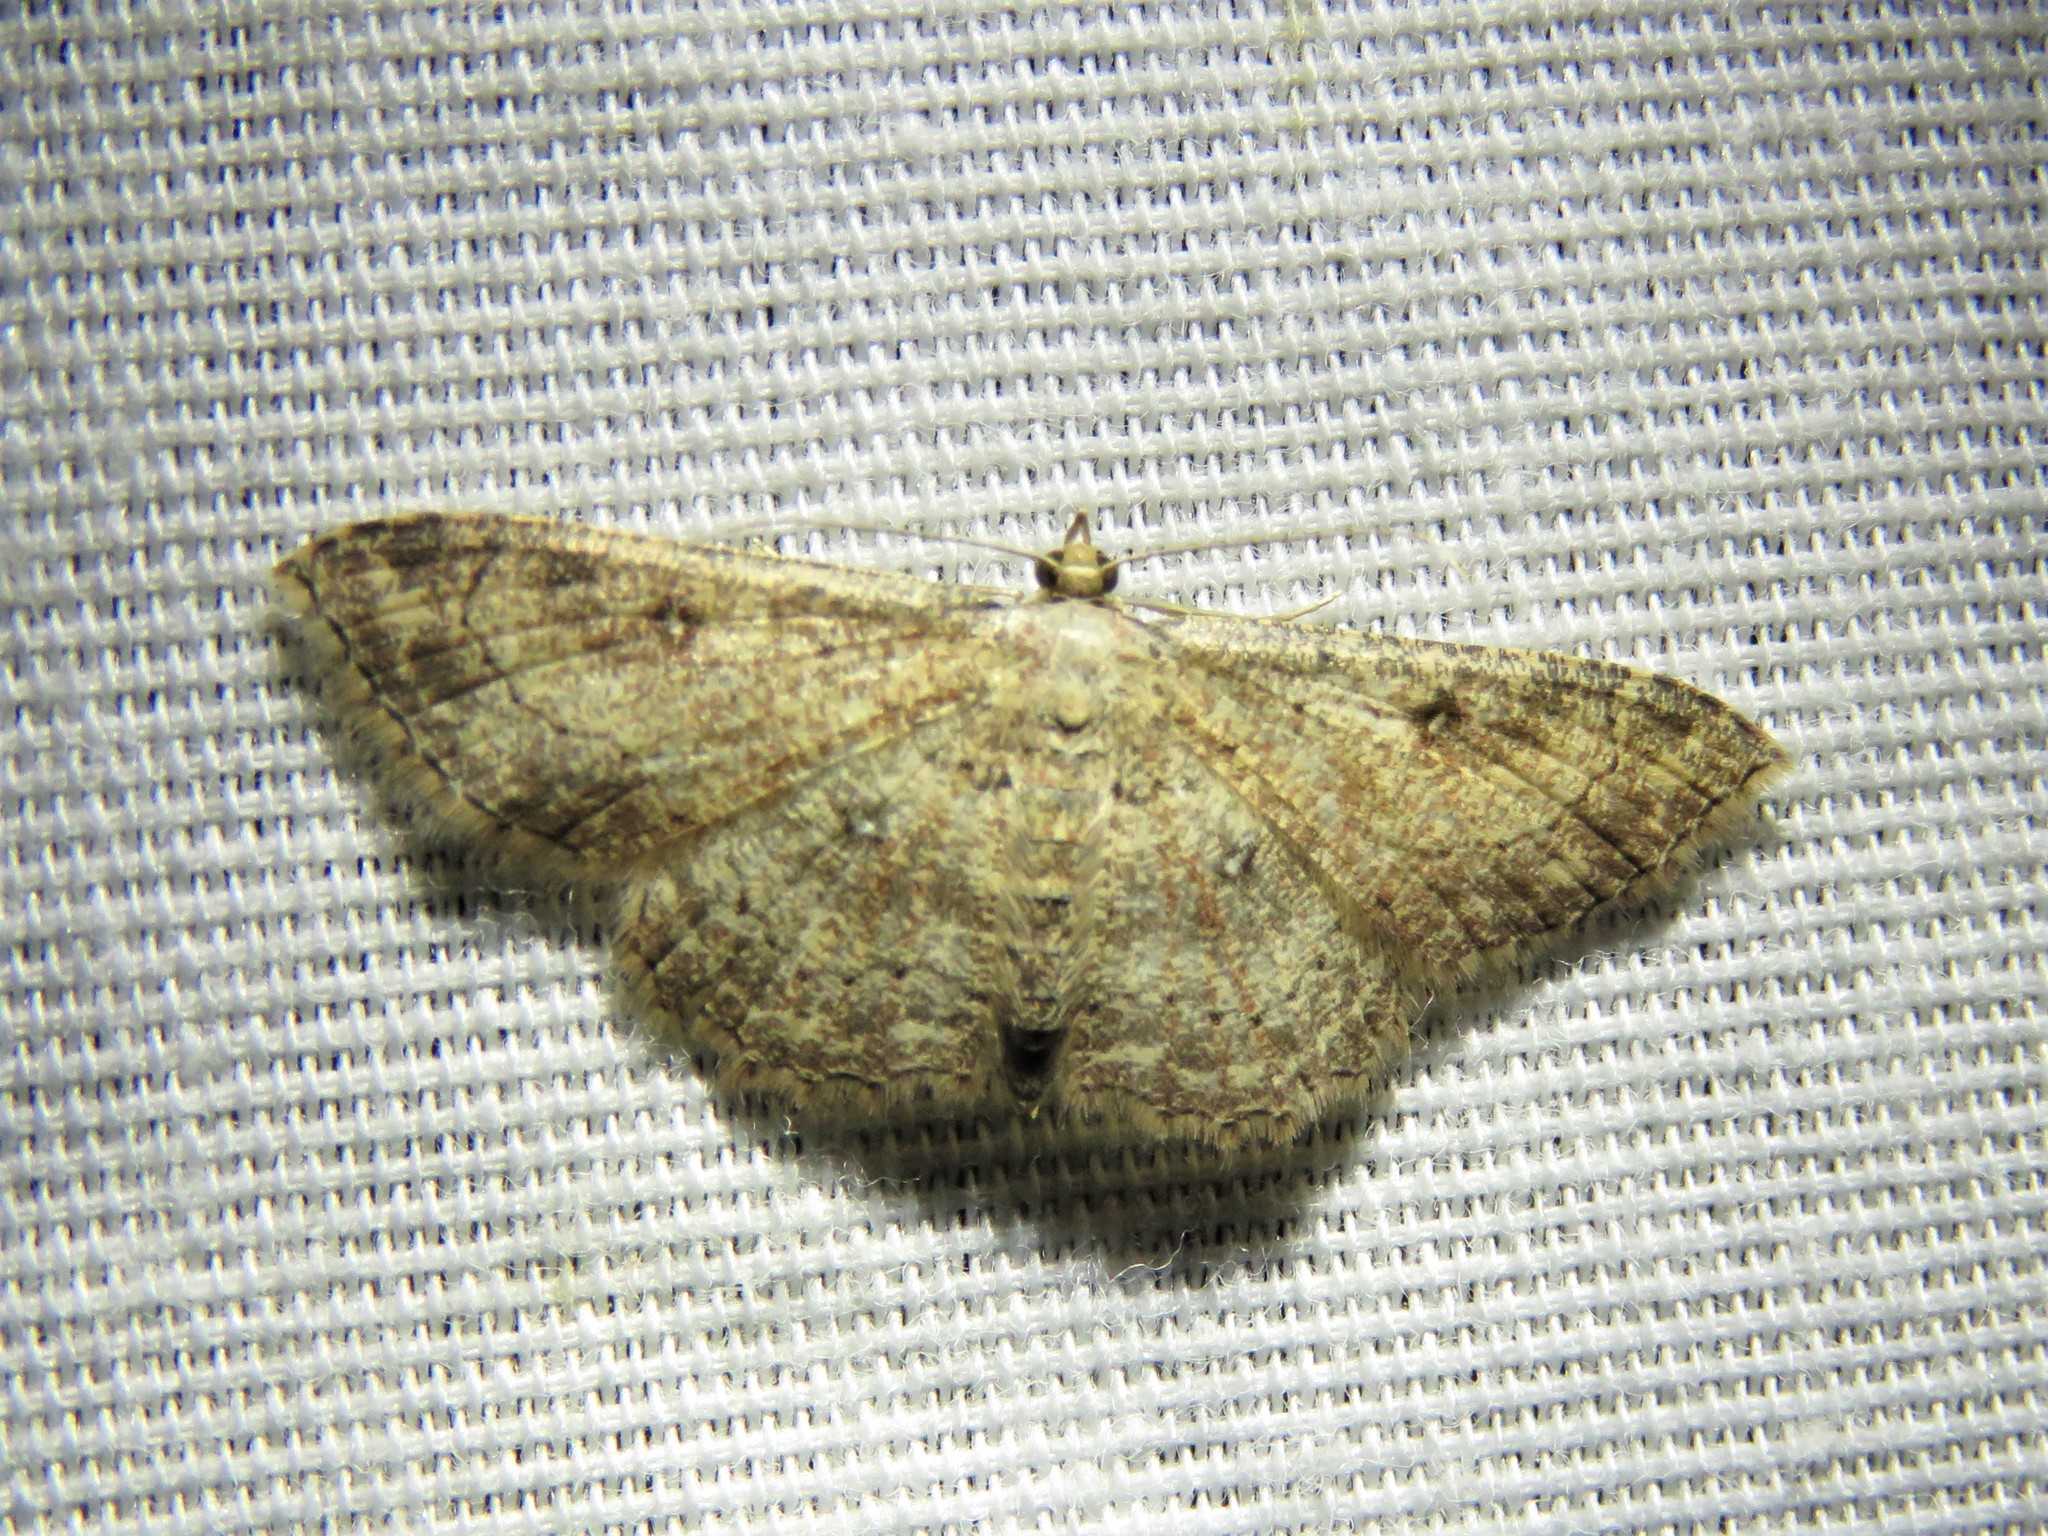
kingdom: Animalia
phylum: Arthropoda
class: Insecta
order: Lepidoptera
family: Geometridae
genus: Cyclophora
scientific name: Cyclophora nanaria
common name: Cankerworm
